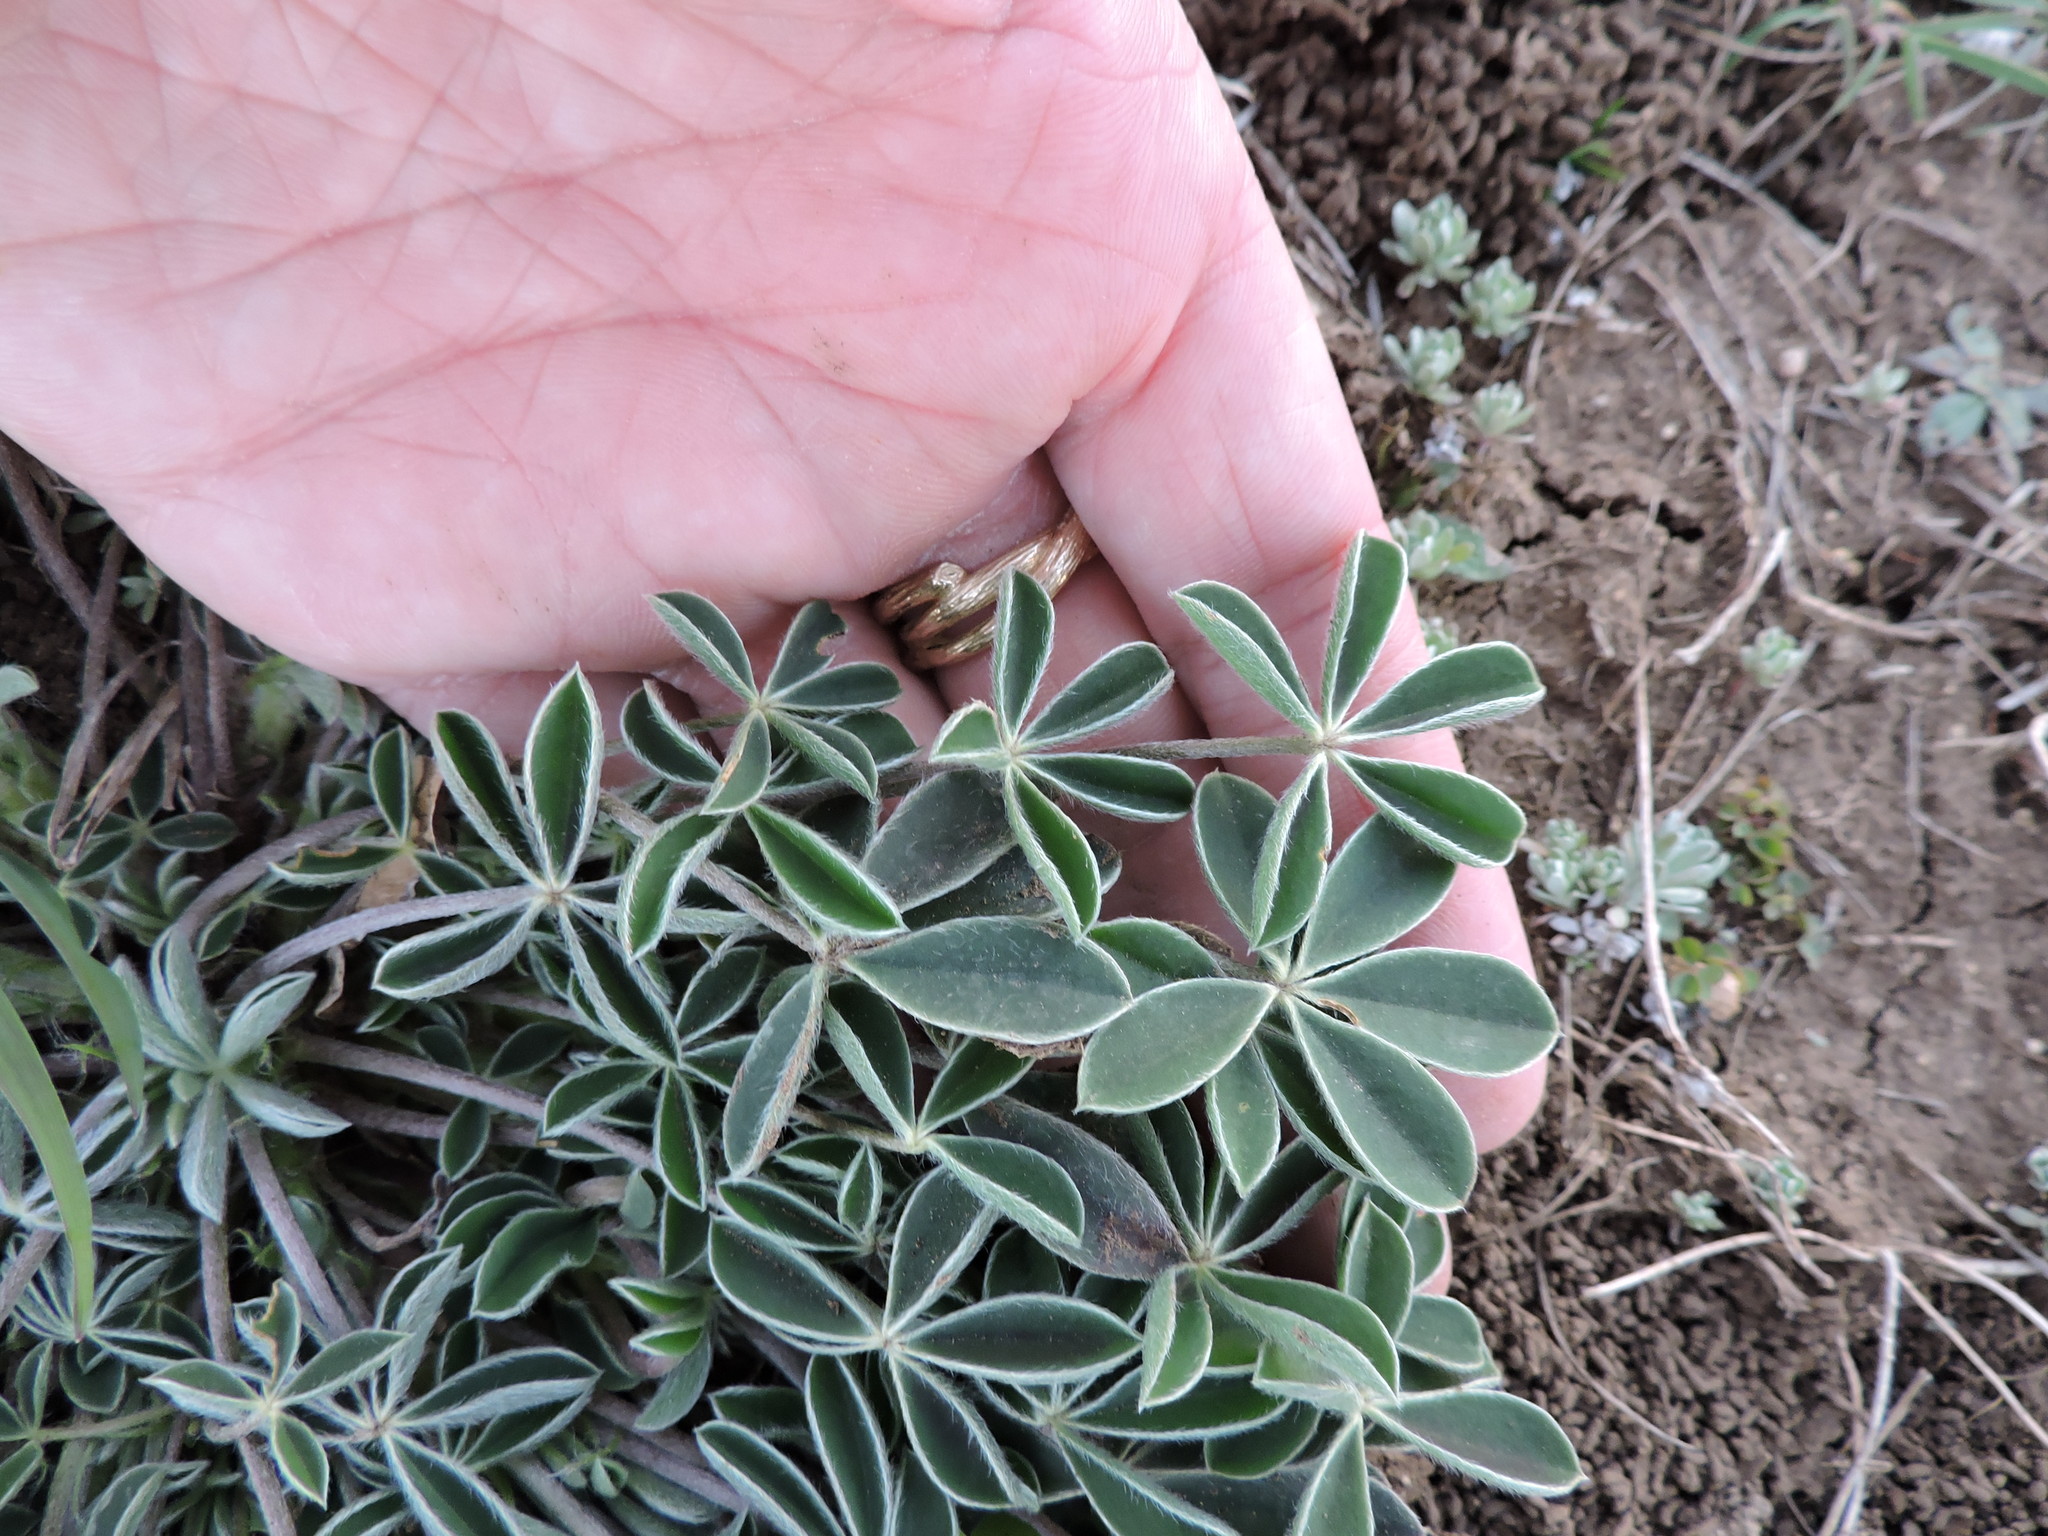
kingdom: Plantae
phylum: Tracheophyta
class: Magnoliopsida
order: Fabales
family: Fabaceae
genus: Lupinus
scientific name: Lupinus texensis
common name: Texas bluebonnet
